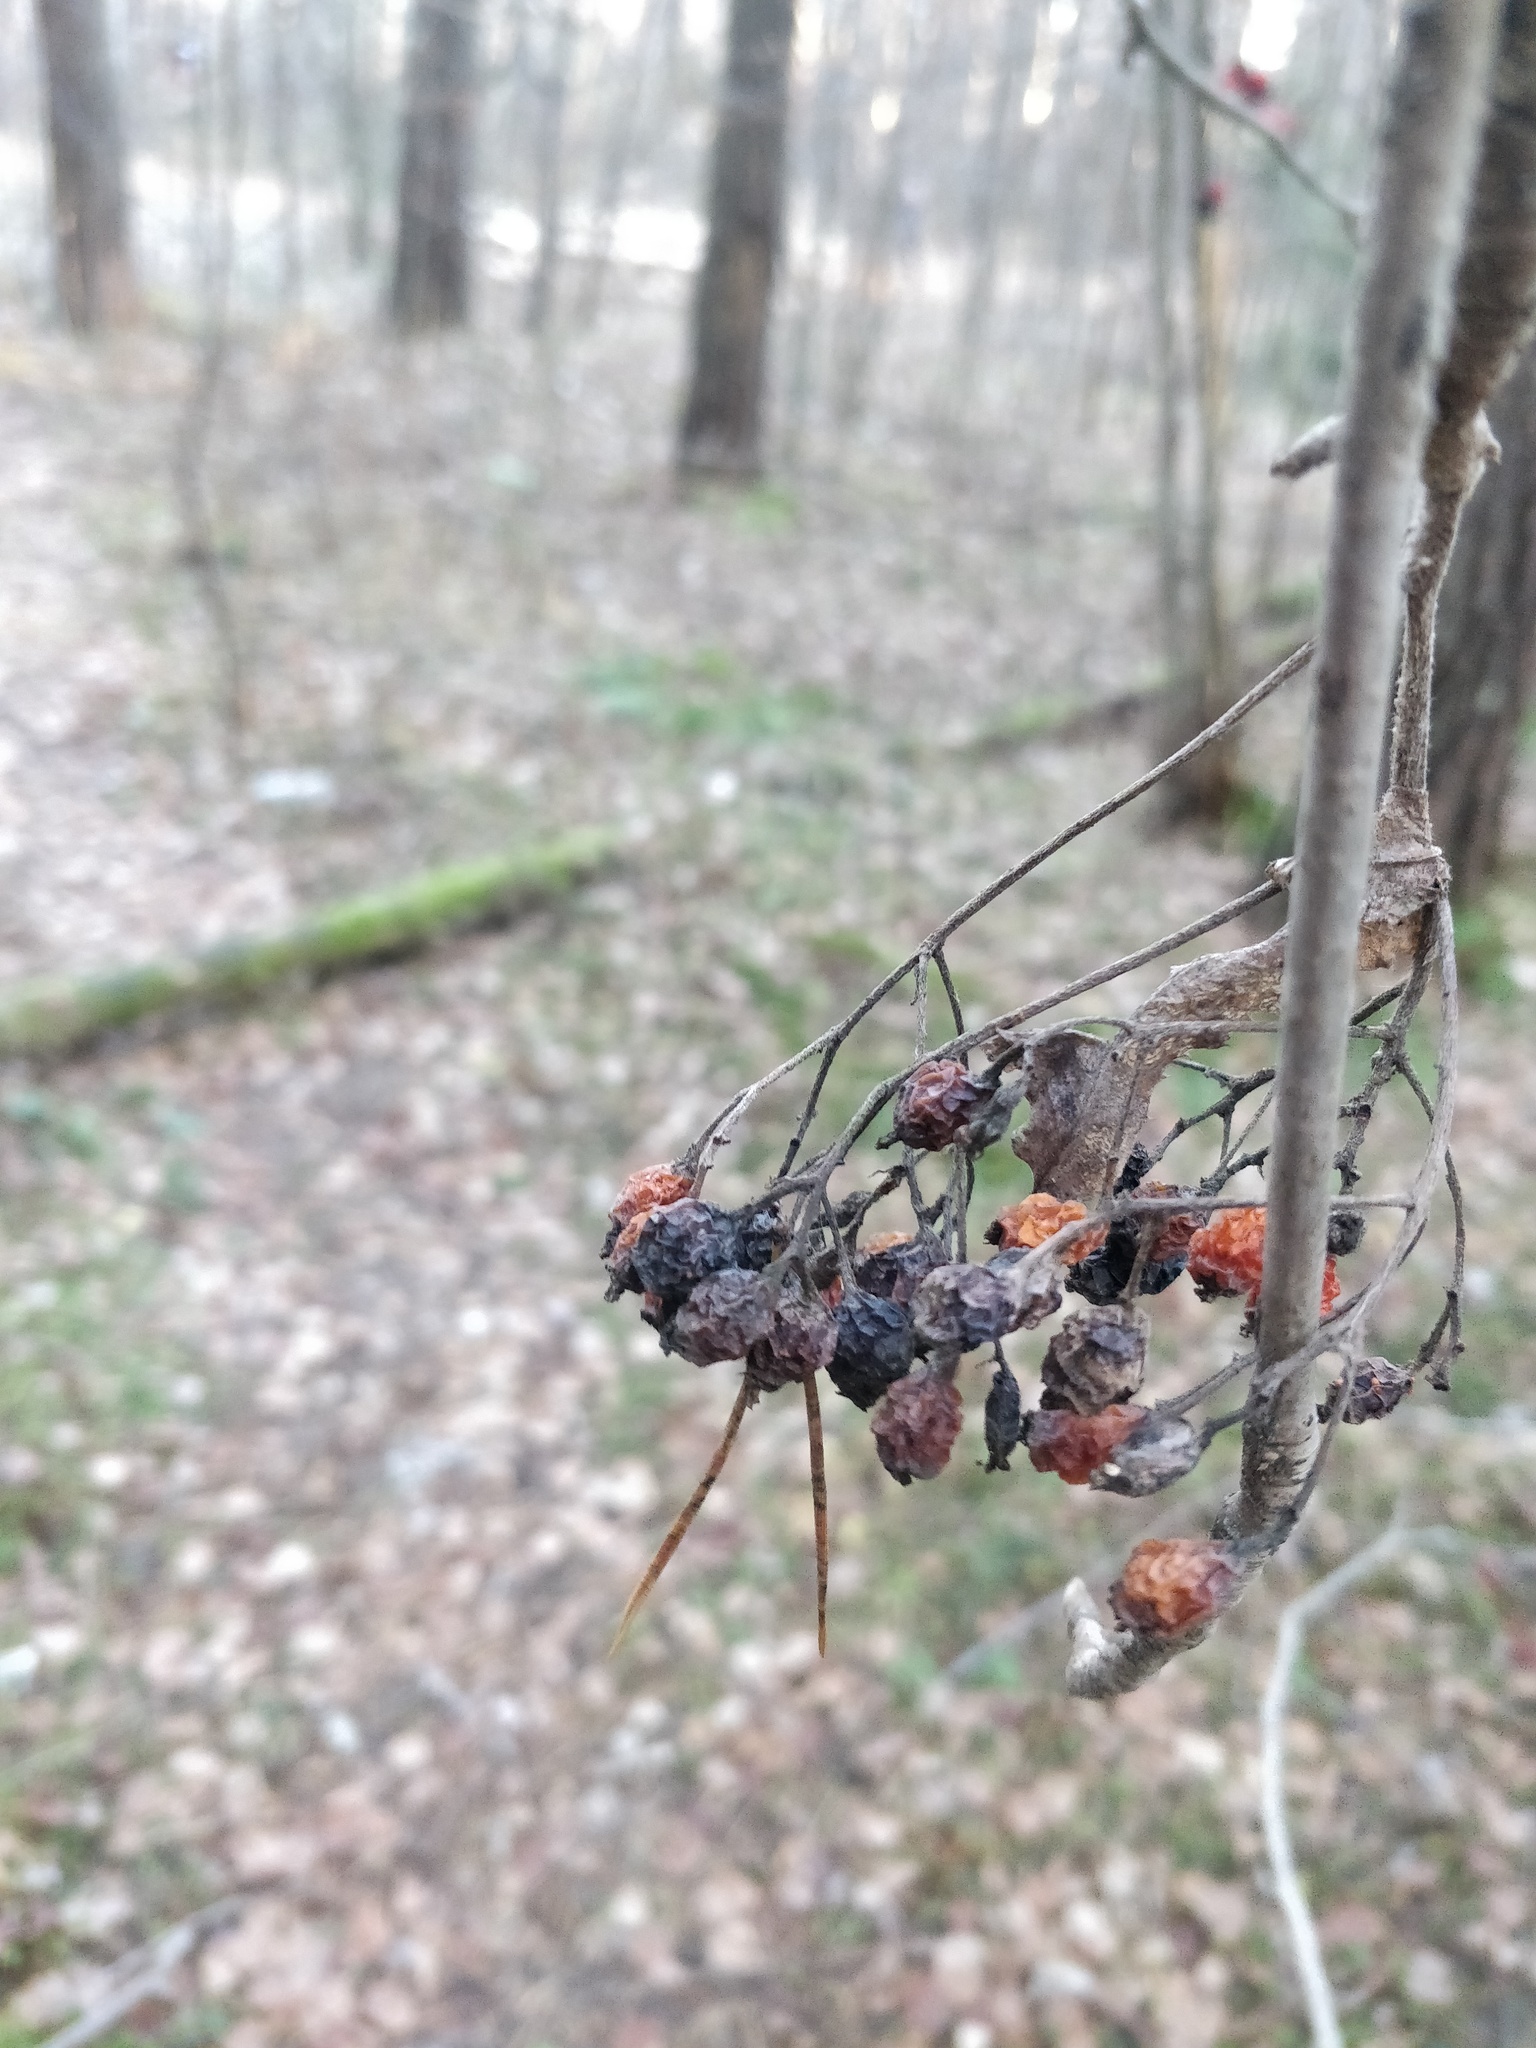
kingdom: Plantae
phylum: Tracheophyta
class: Magnoliopsida
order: Dipsacales
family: Viburnaceae
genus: Viburnum
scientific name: Viburnum opulus
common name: Guelder-rose
